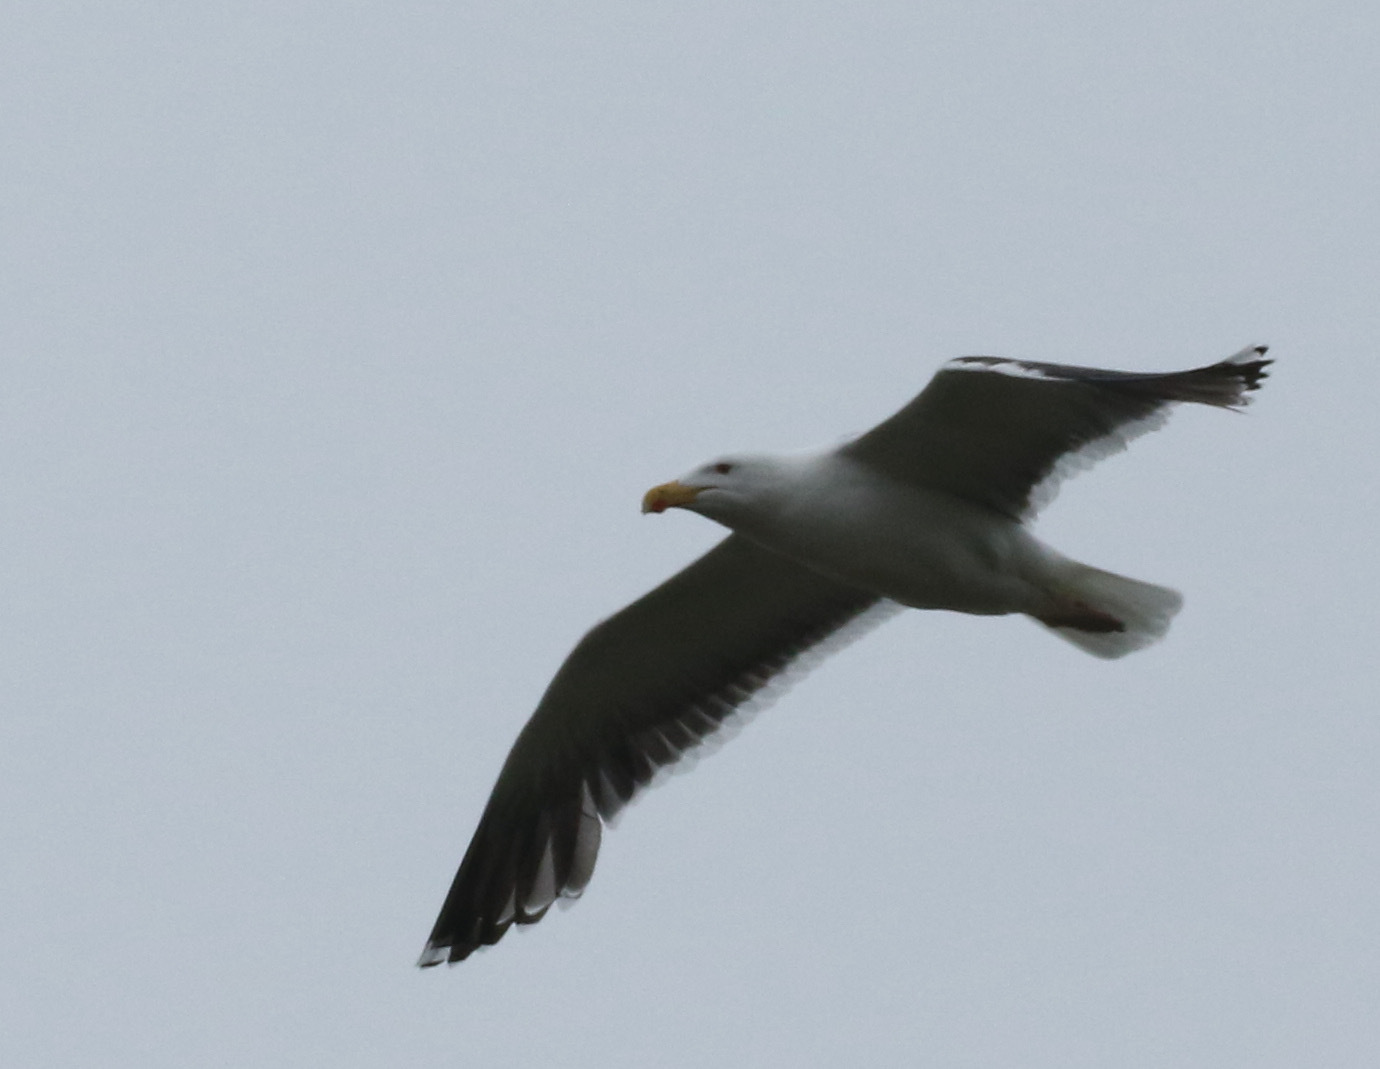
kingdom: Animalia
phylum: Chordata
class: Aves
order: Charadriiformes
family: Laridae
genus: Larus
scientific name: Larus marinus
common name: Great black-backed gull
